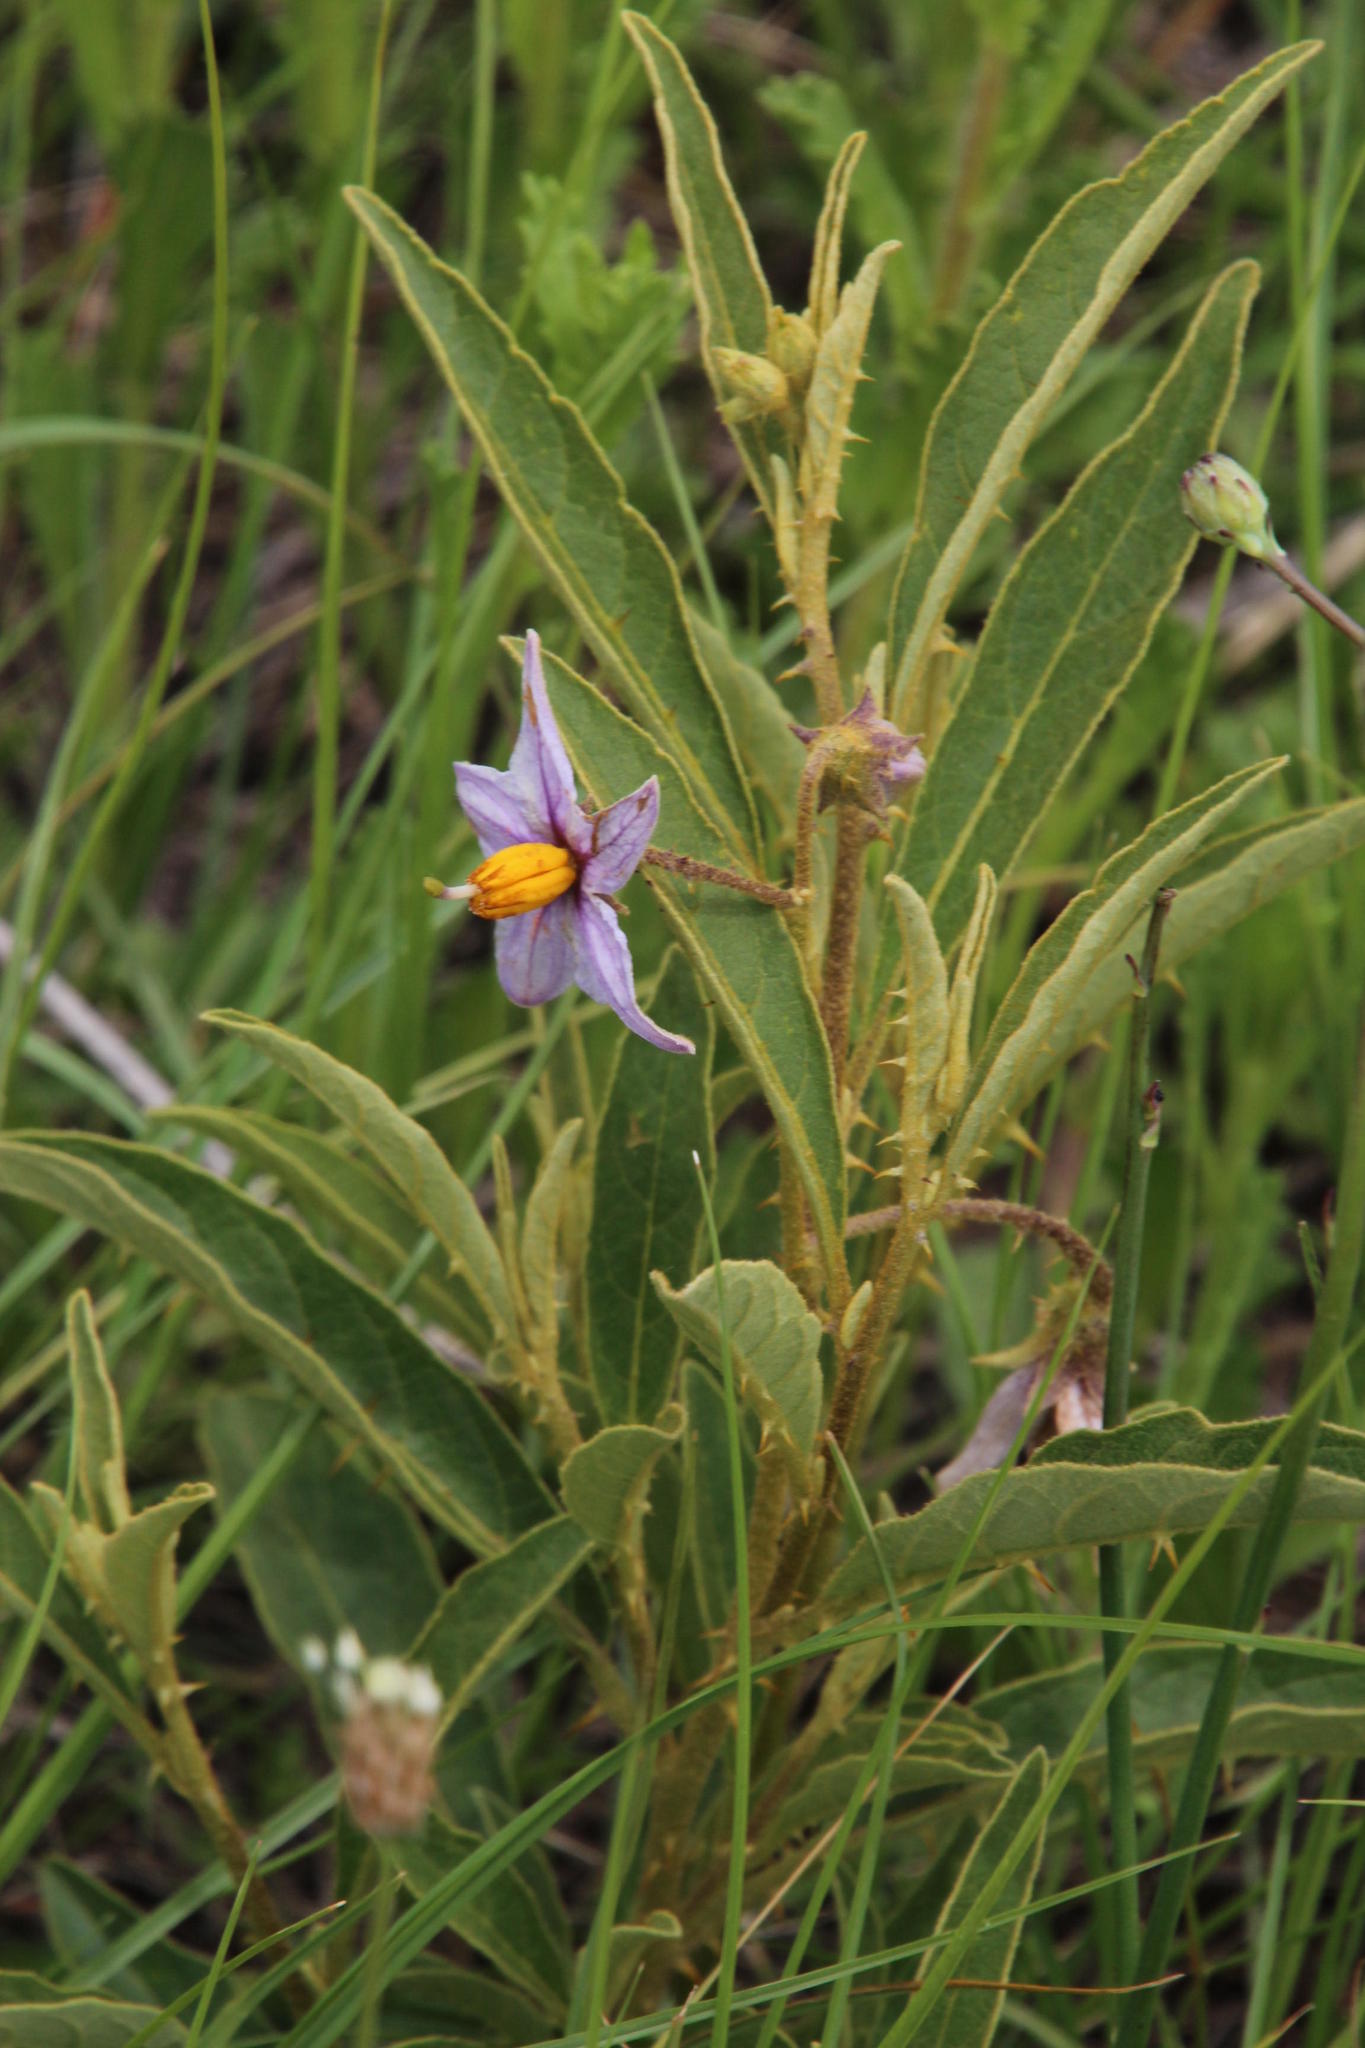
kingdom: Plantae
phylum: Tracheophyta
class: Magnoliopsida
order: Solanales
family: Solanaceae
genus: Solanum
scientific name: Solanum campylacanthum
